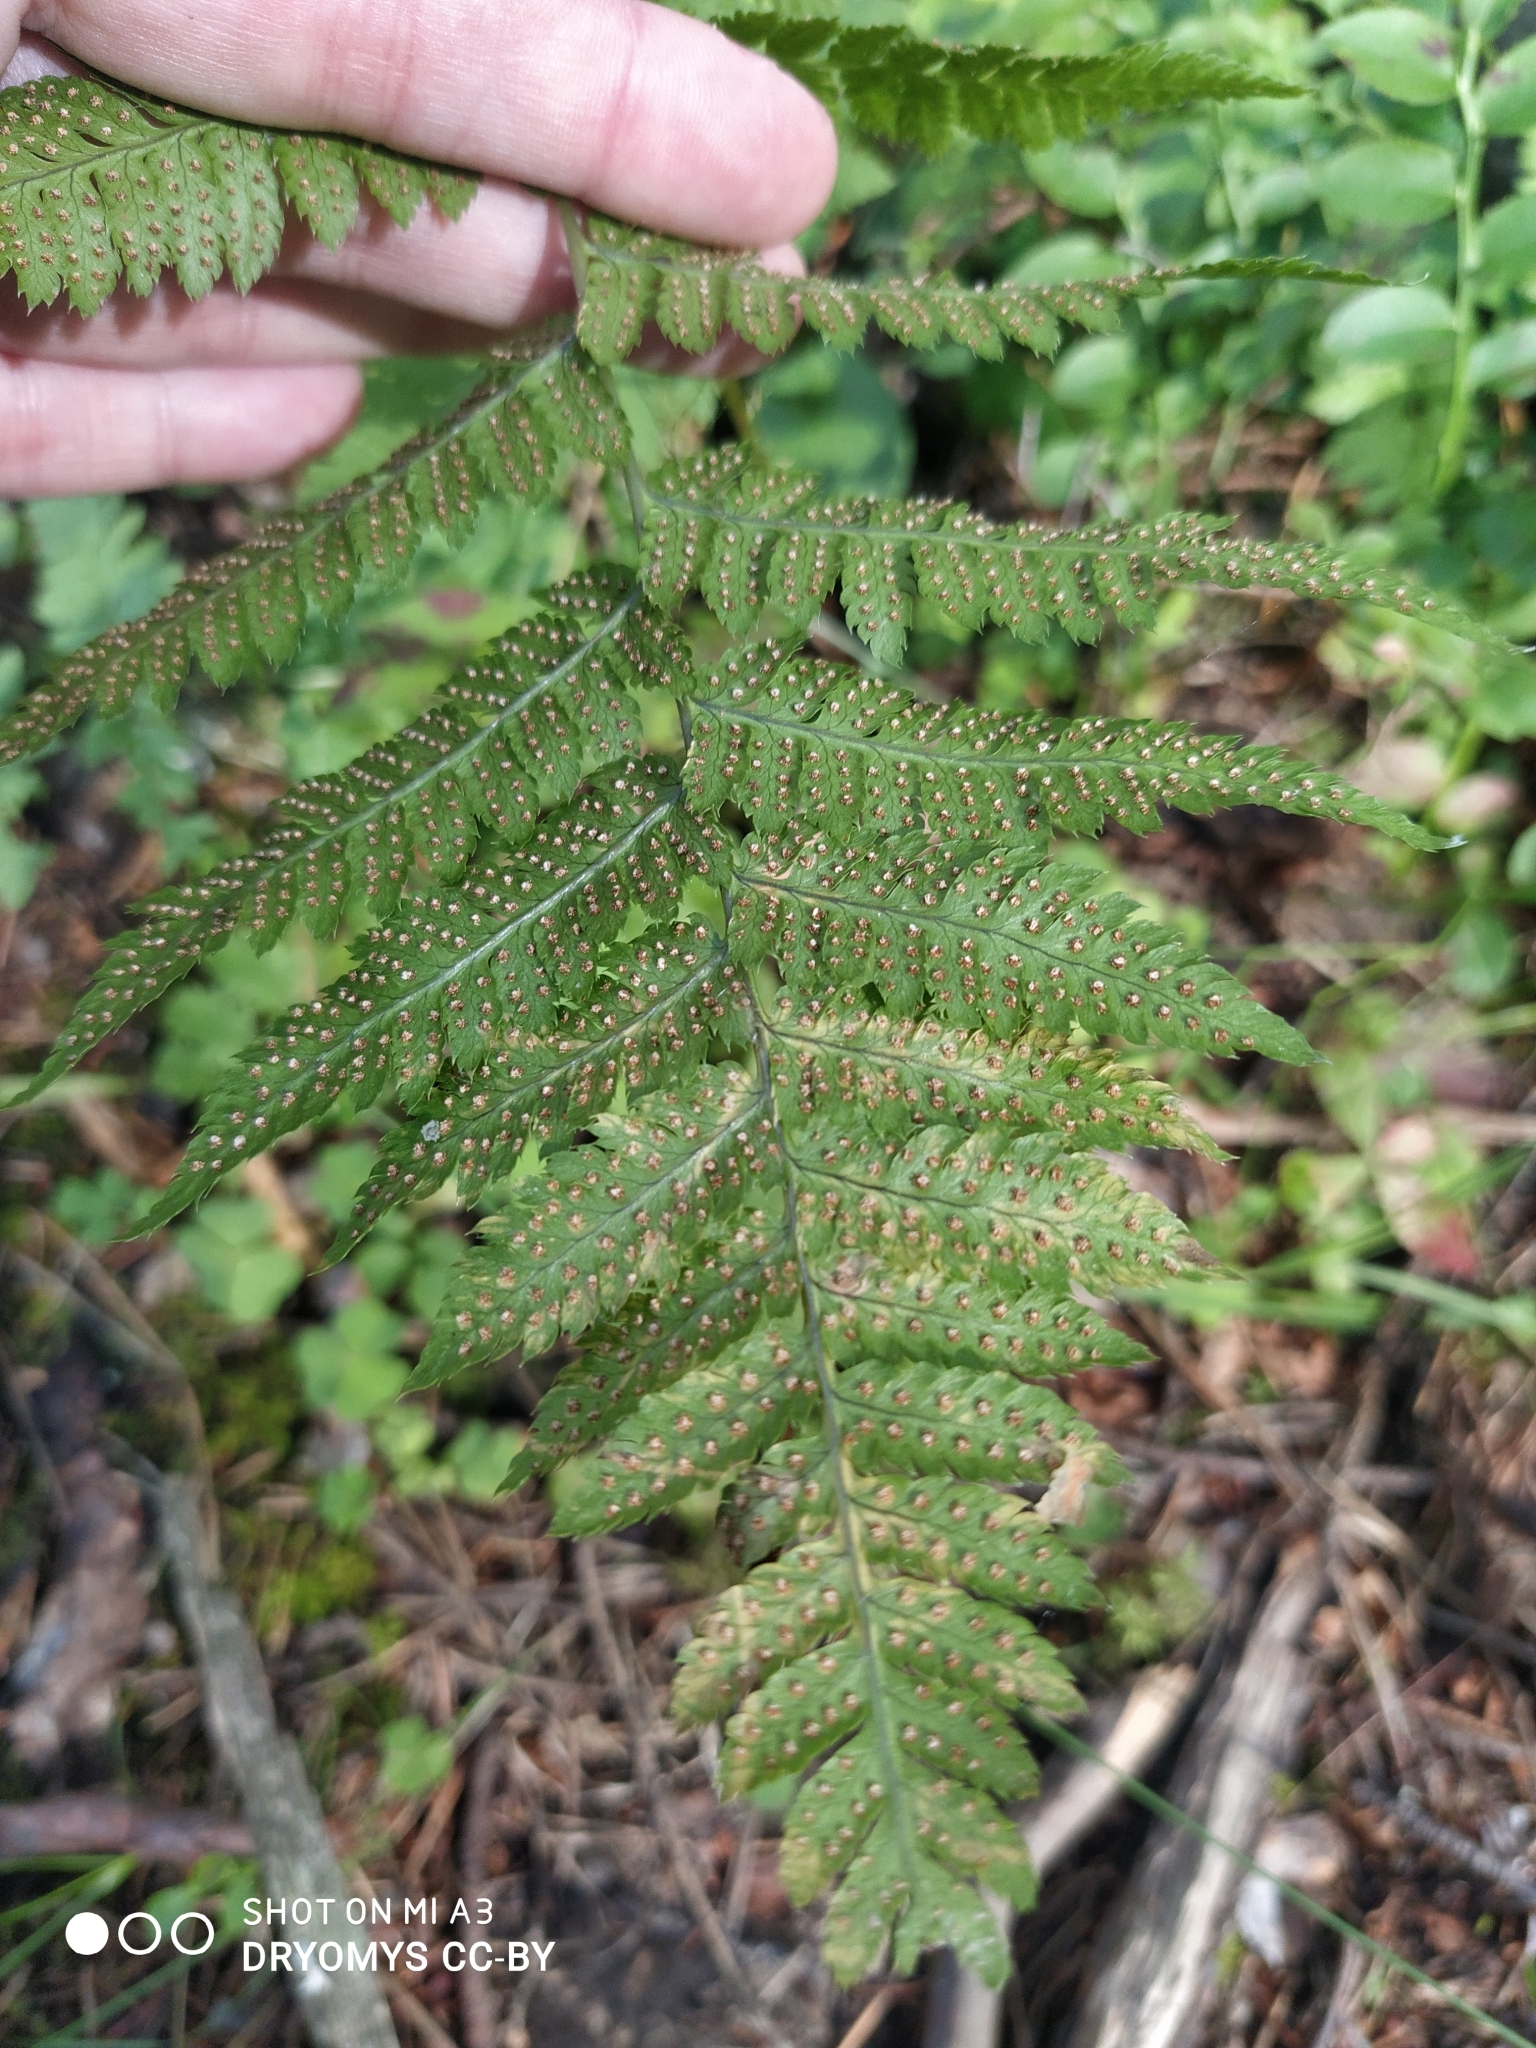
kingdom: Plantae
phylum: Tracheophyta
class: Polypodiopsida
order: Polypodiales
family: Dryopteridaceae
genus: Dryopteris
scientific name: Dryopteris carthusiana
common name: Narrow buckler-fern
